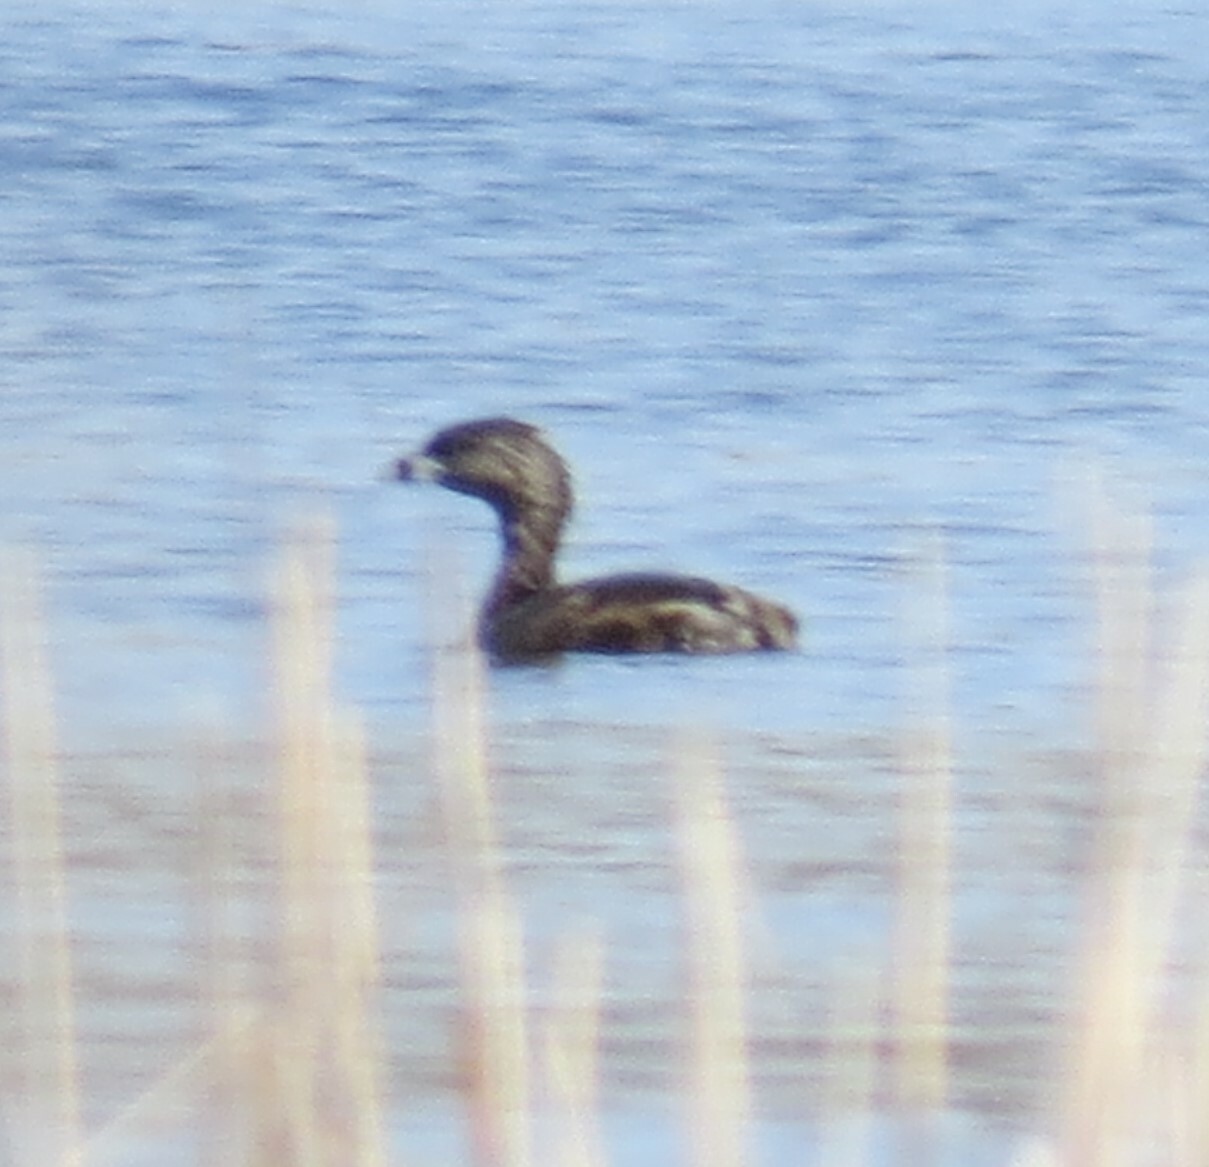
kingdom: Animalia
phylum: Chordata
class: Aves
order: Podicipediformes
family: Podicipedidae
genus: Podilymbus
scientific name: Podilymbus podiceps
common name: Pied-billed grebe
